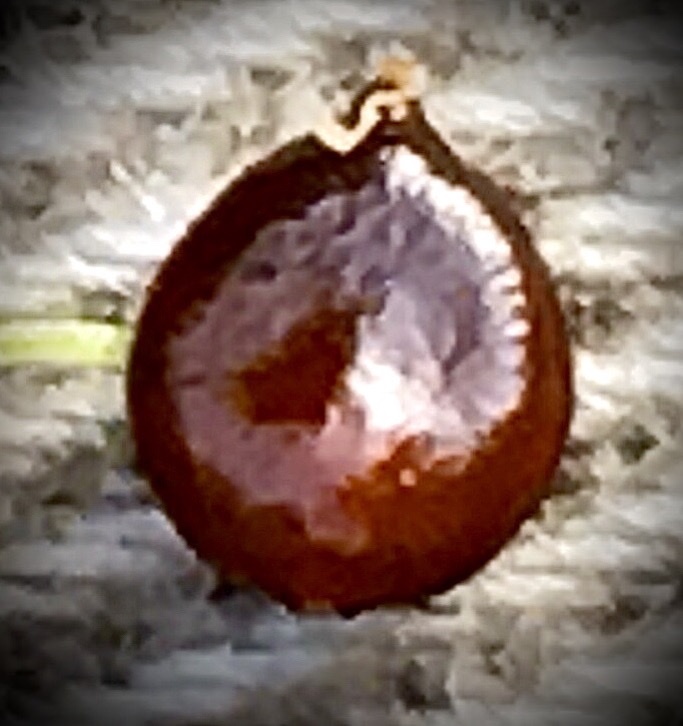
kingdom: Plantae
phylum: Tracheophyta
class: Magnoliopsida
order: Caryophyllales
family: Polygonaceae
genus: Persicaria
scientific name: Persicaria extremiorientalis
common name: Far-eastern smartweed
